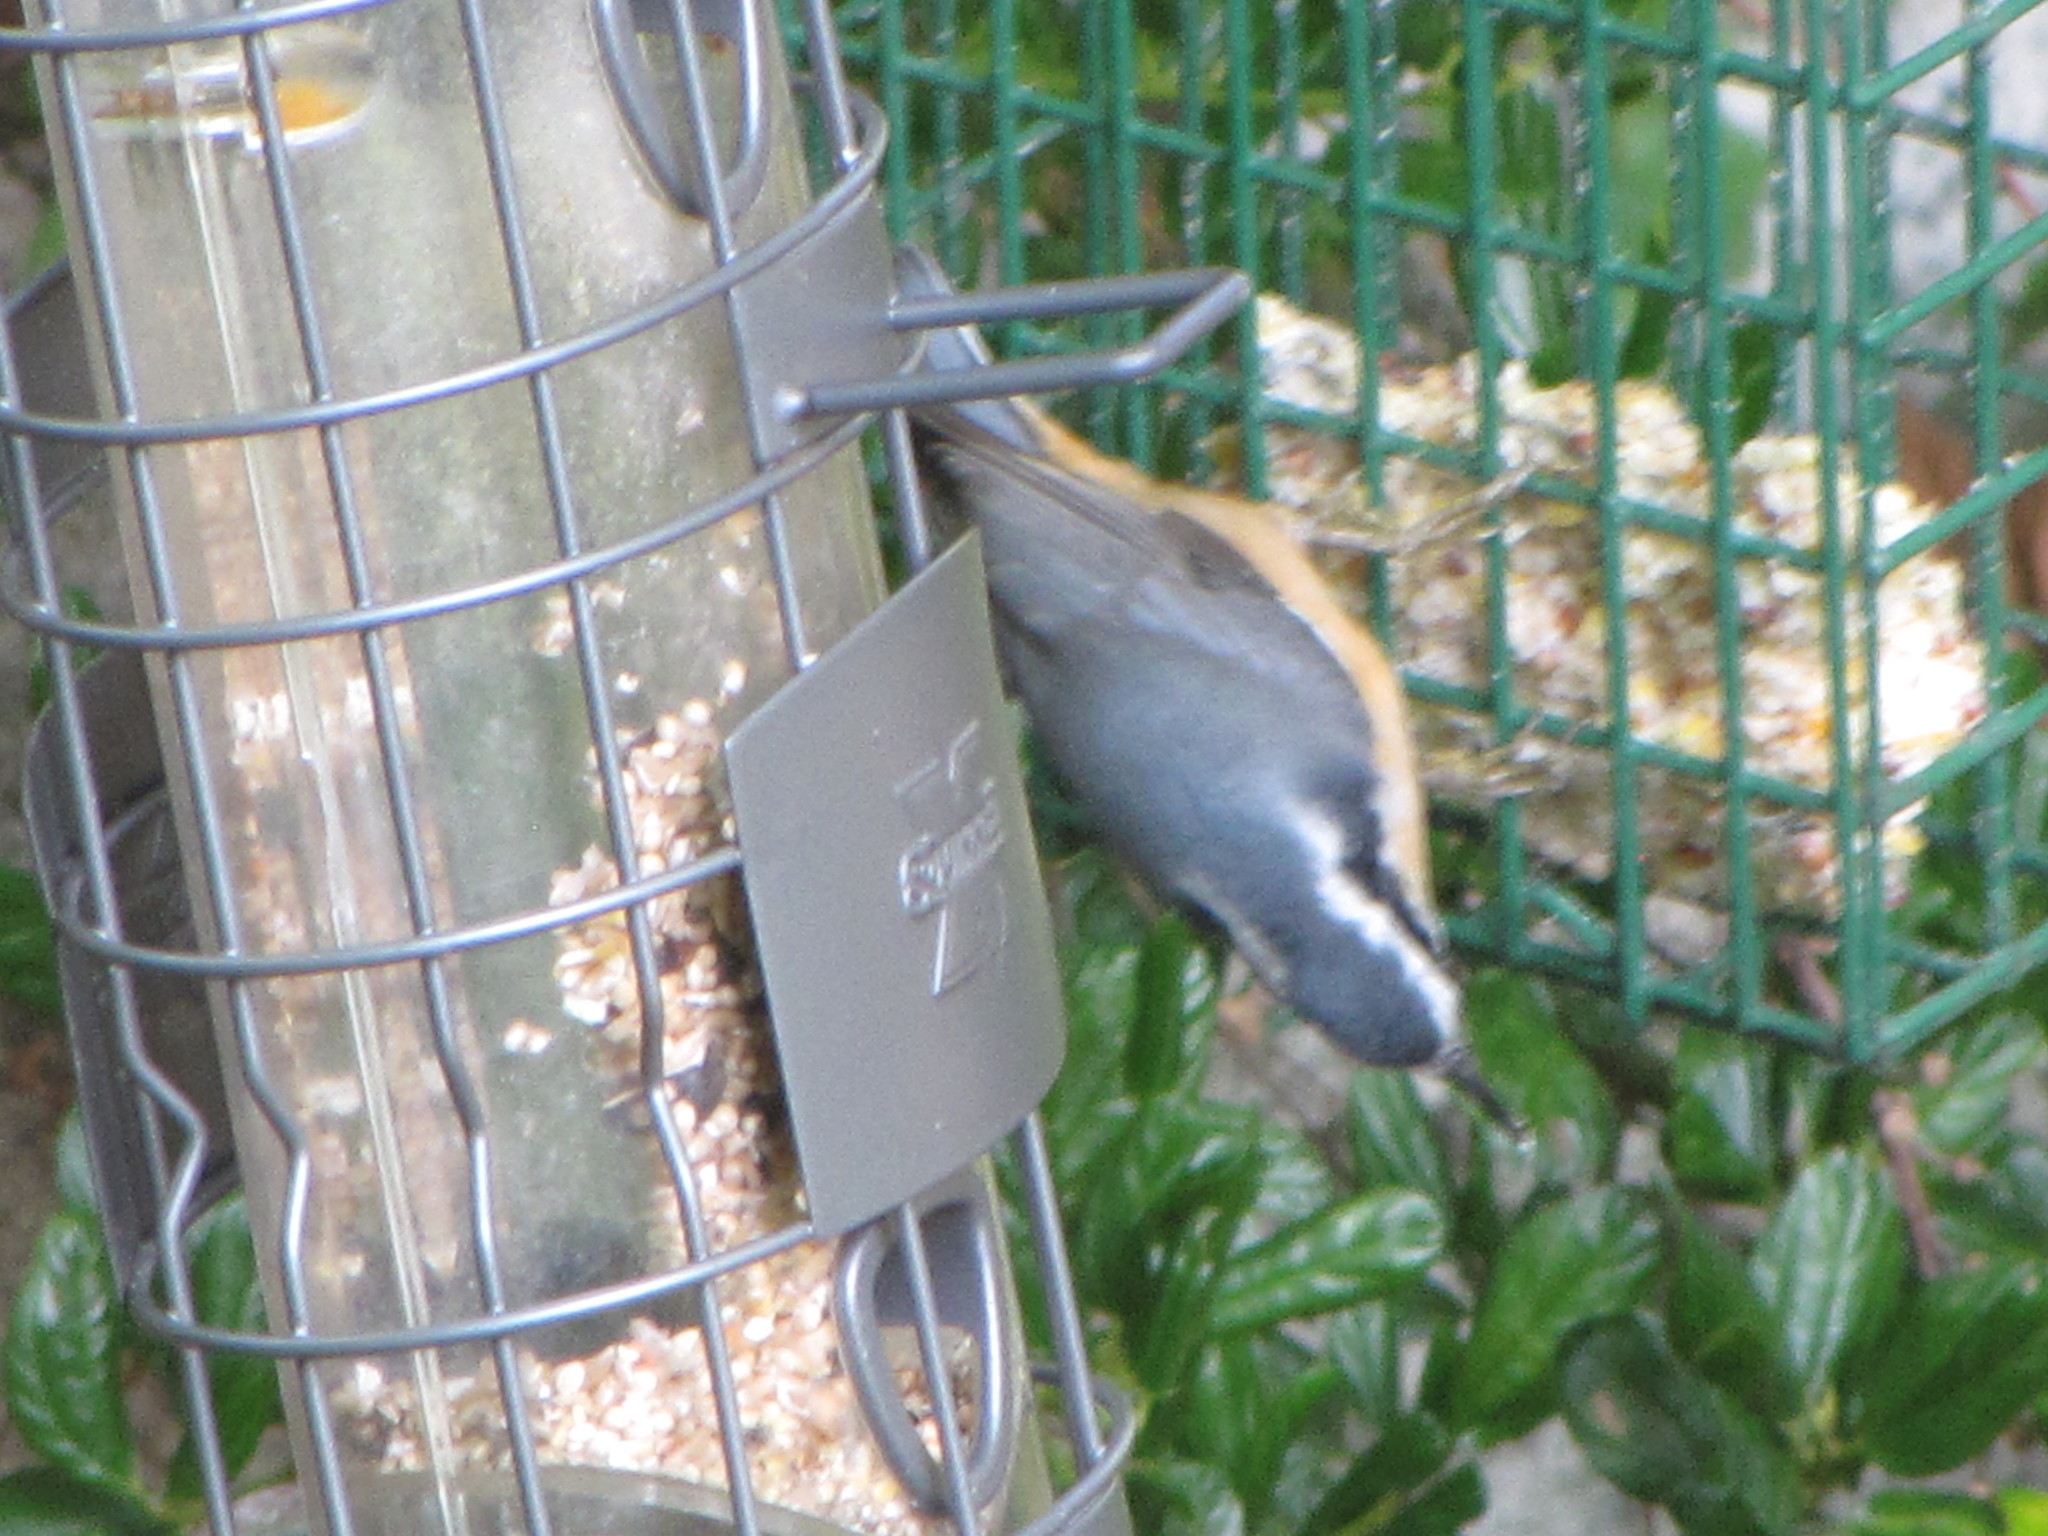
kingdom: Animalia
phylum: Chordata
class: Aves
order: Passeriformes
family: Sittidae
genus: Sitta
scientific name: Sitta canadensis
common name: Red-breasted nuthatch
